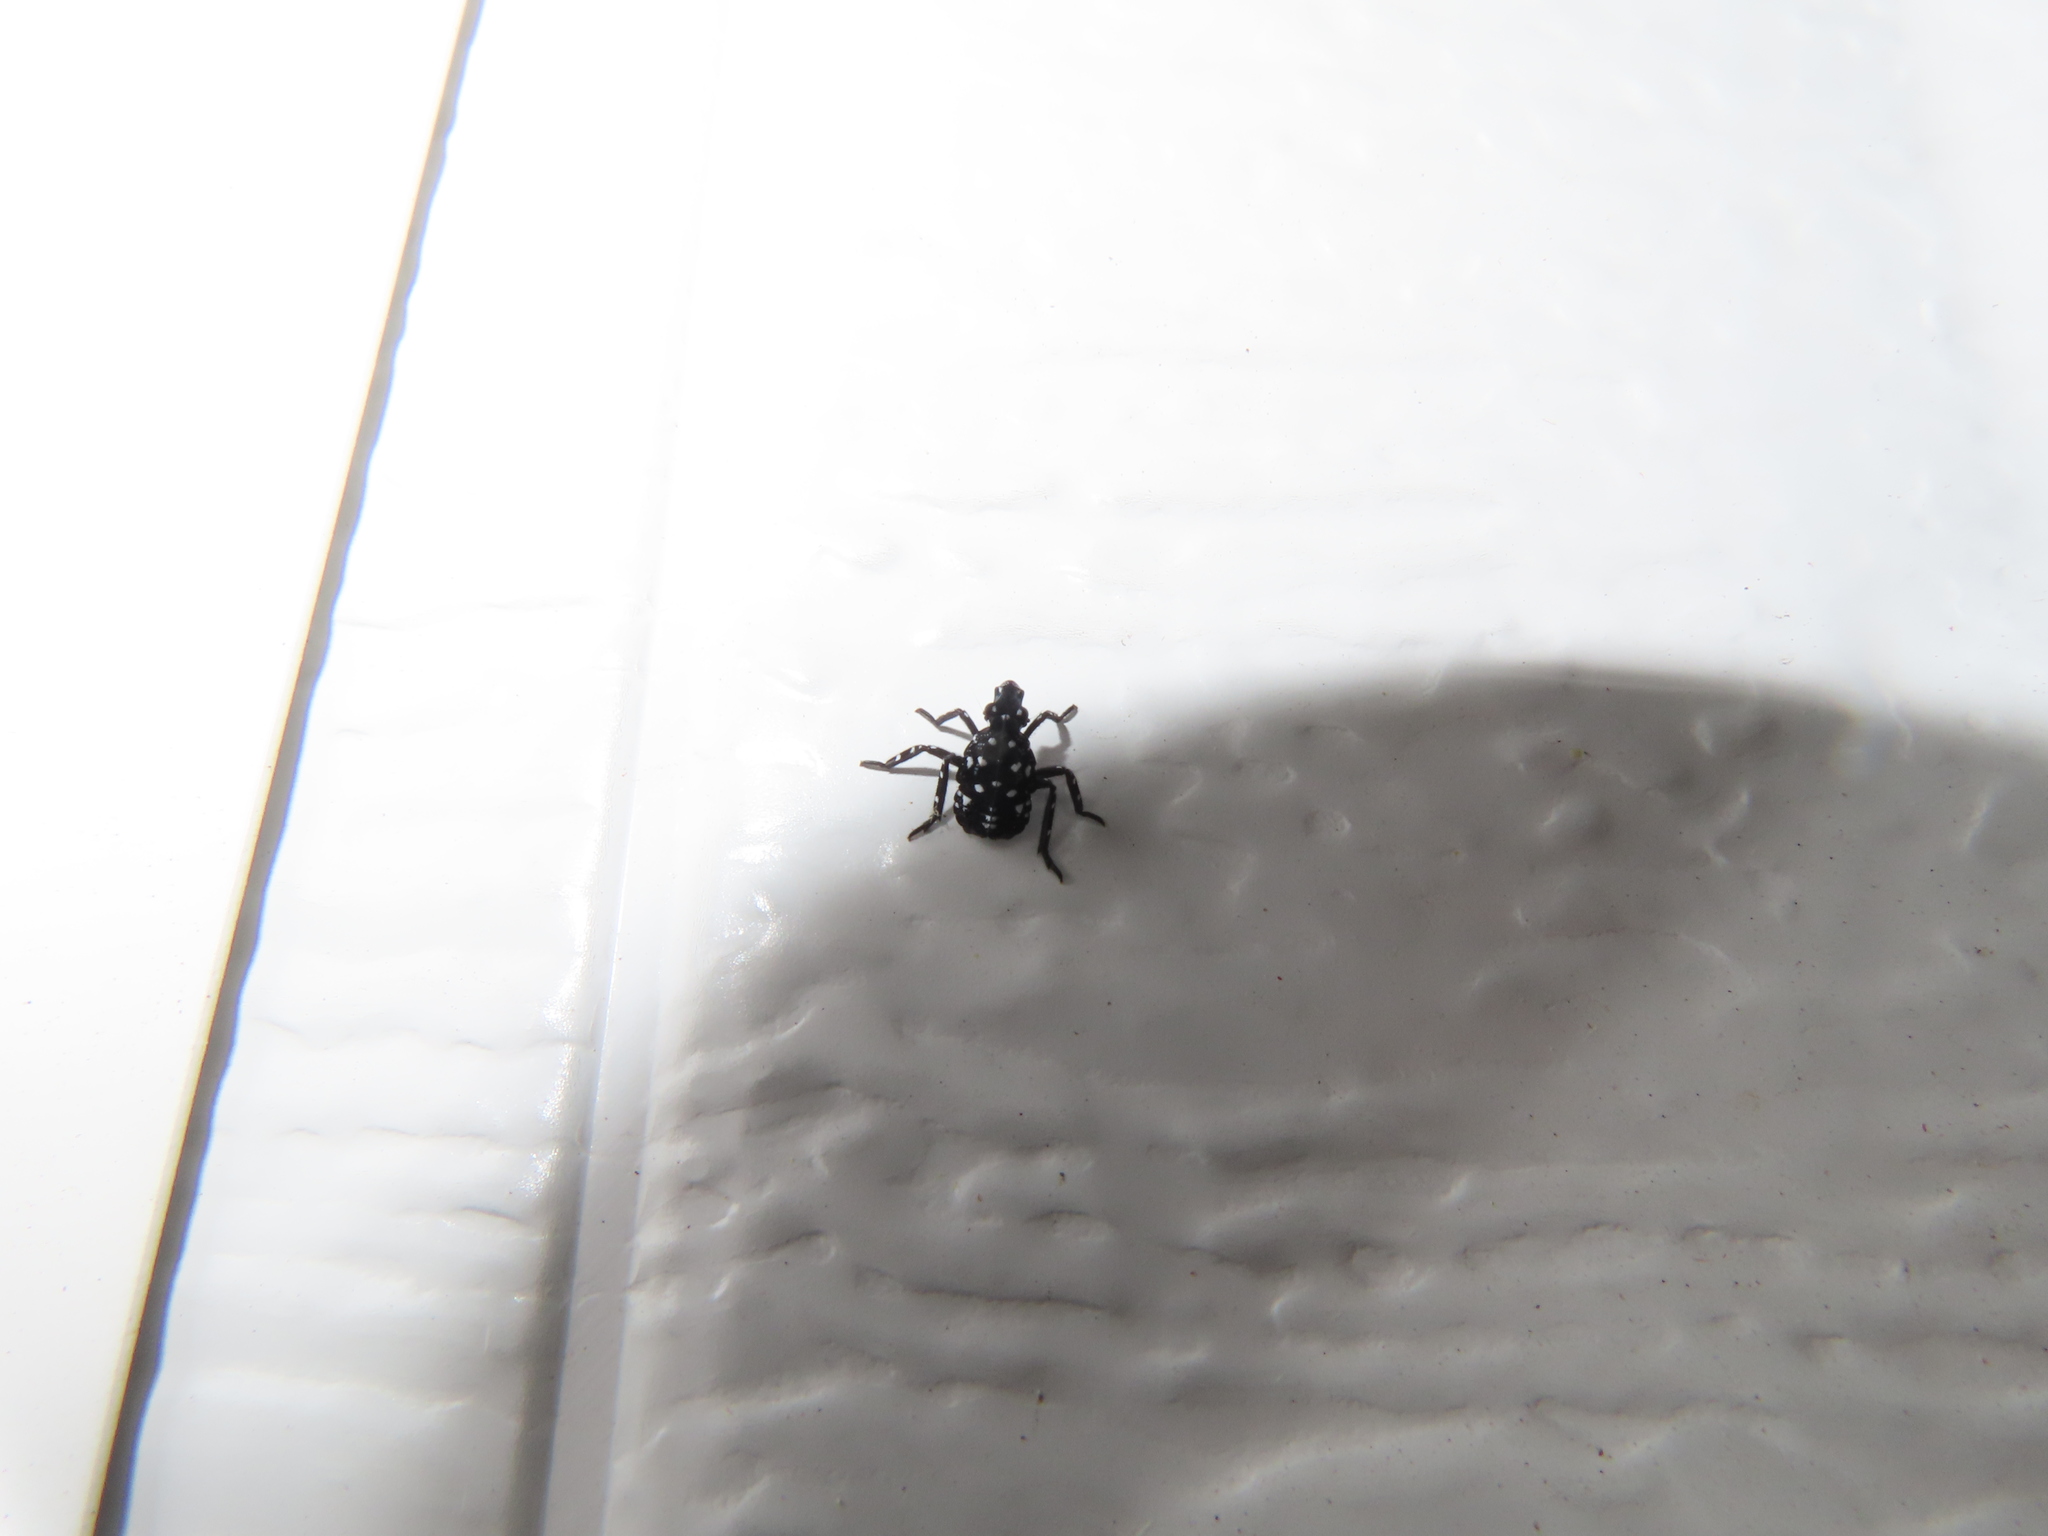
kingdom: Animalia
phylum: Arthropoda
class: Insecta
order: Hemiptera
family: Fulgoridae
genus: Lycorma
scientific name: Lycorma delicatula
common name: Spotted lanternfly
